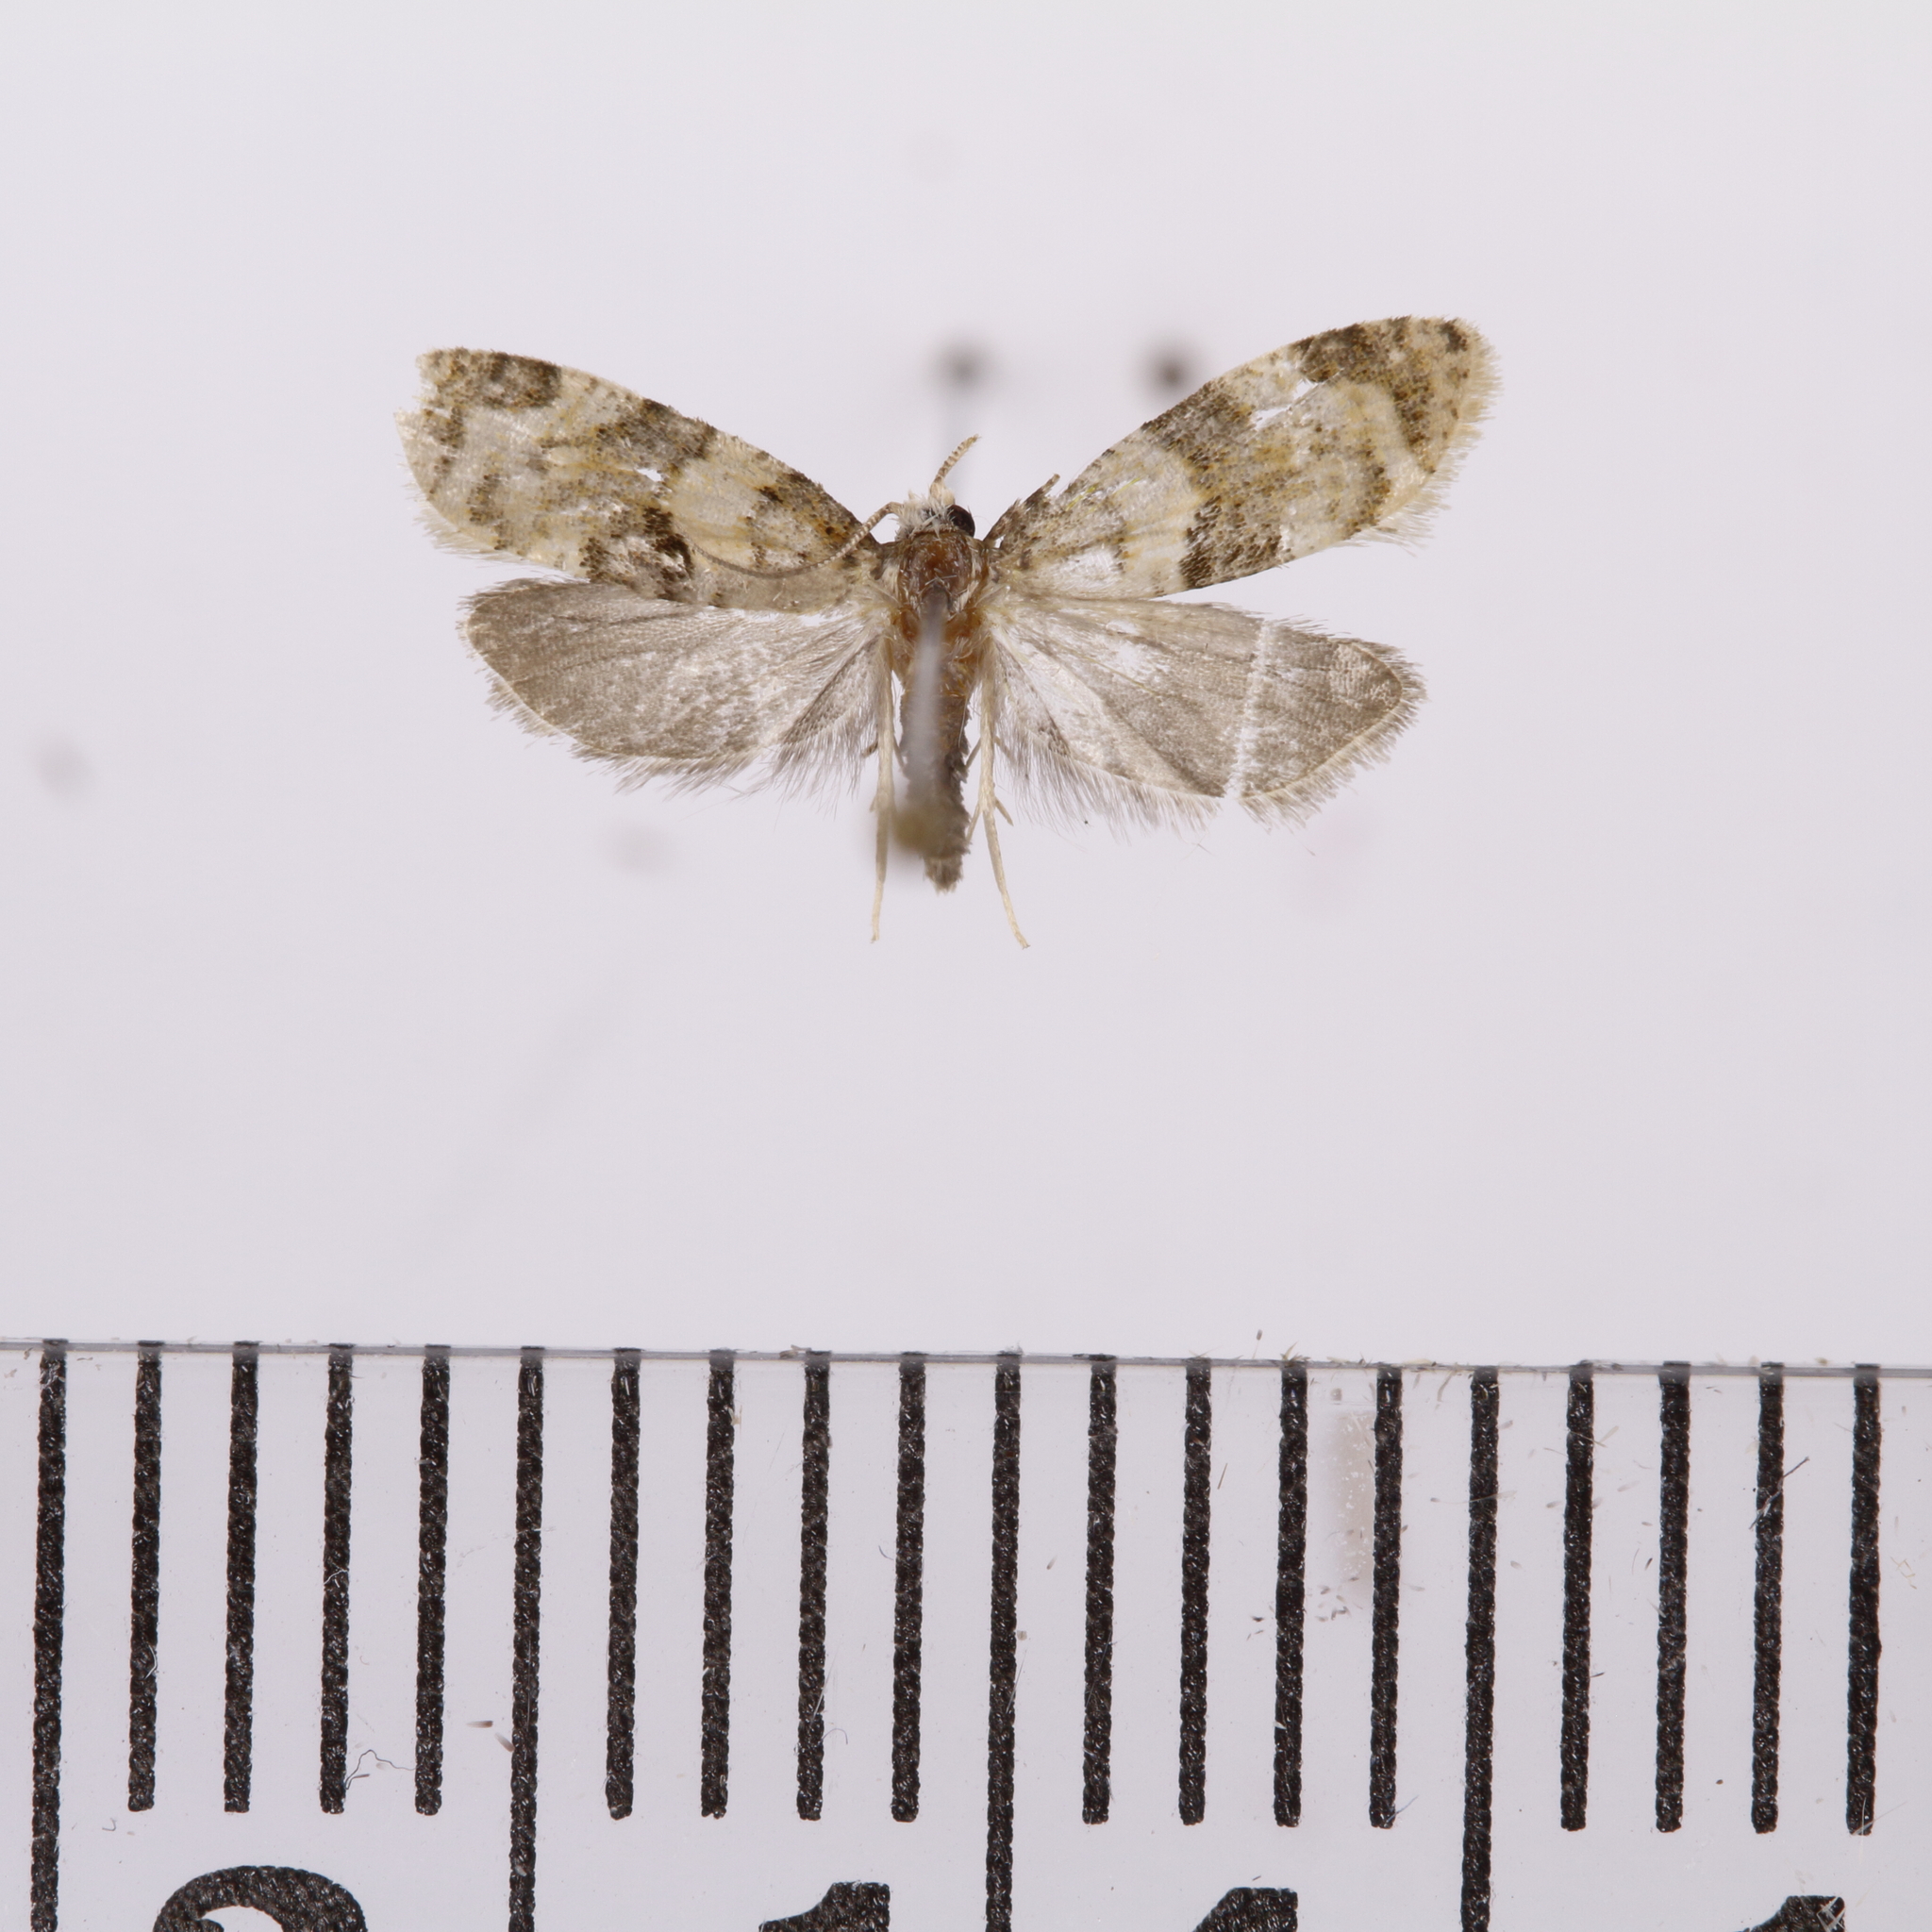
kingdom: Animalia
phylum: Arthropoda
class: Insecta
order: Lepidoptera
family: Tortricidae
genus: Dipterina
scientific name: Dipterina imbriferana
